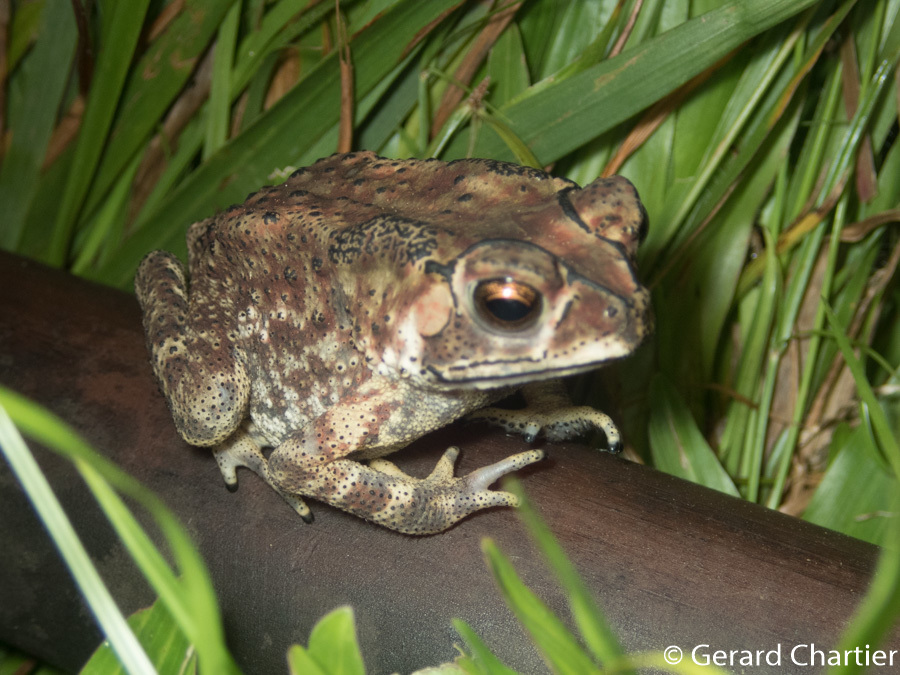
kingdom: Animalia
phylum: Chordata
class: Amphibia
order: Anura
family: Bufonidae
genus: Duttaphrynus
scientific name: Duttaphrynus melanostictus
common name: Common sunda toad
